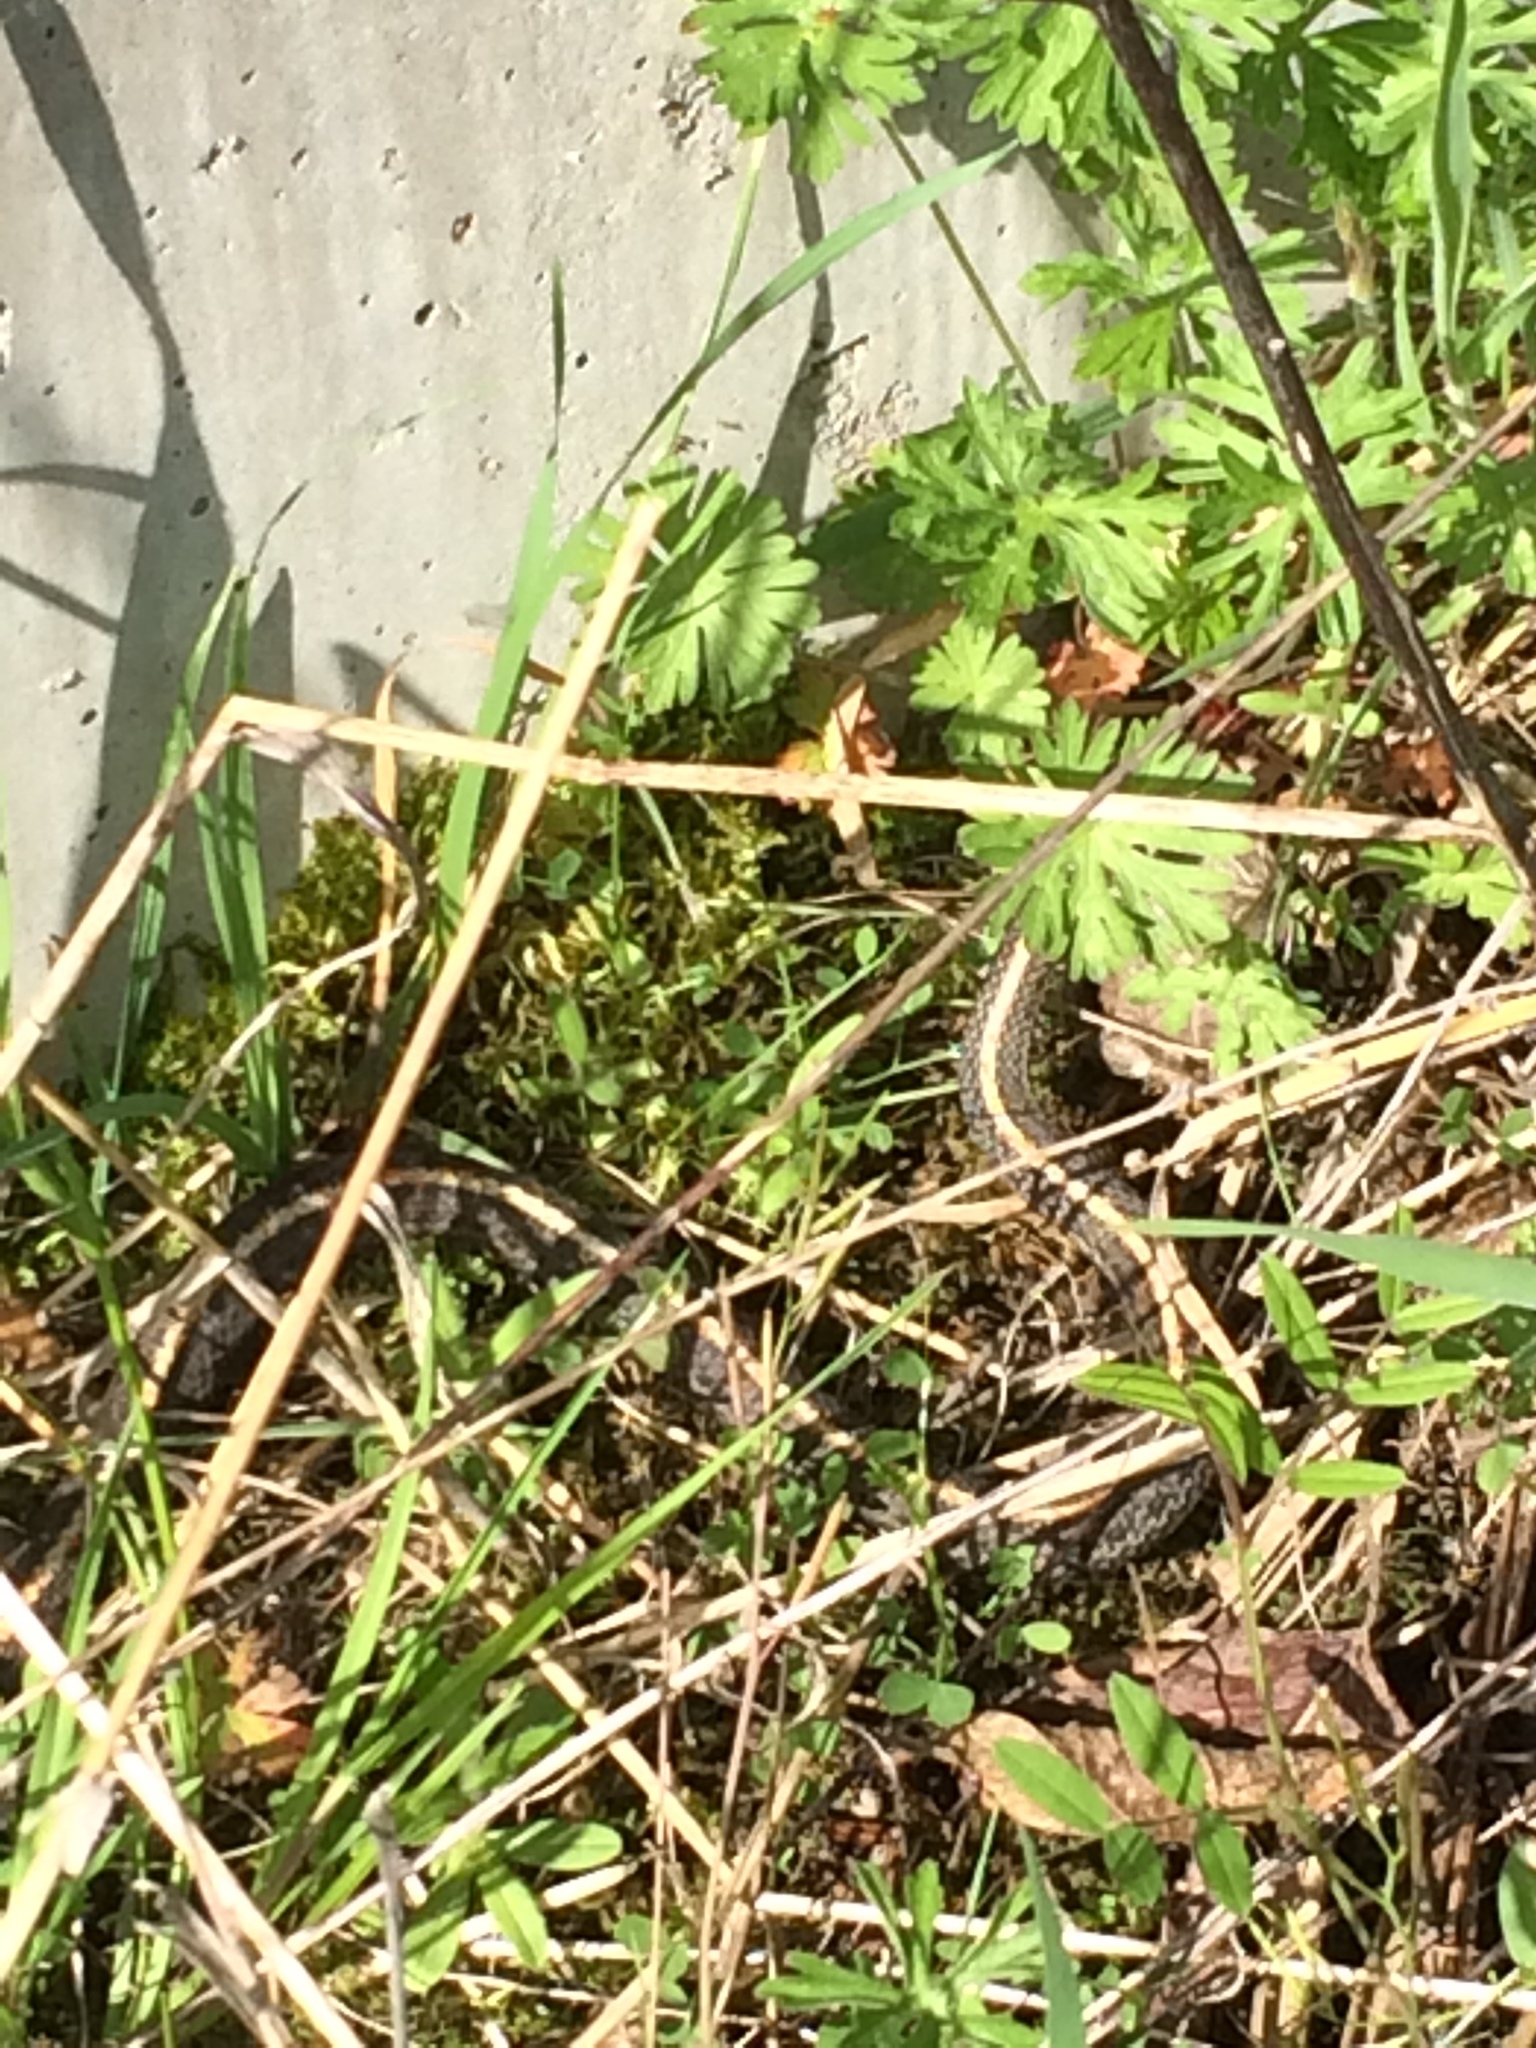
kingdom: Animalia
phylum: Chordata
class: Squamata
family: Colubridae
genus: Thamnophis
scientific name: Thamnophis ordinoides
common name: Northwestern garter snake
